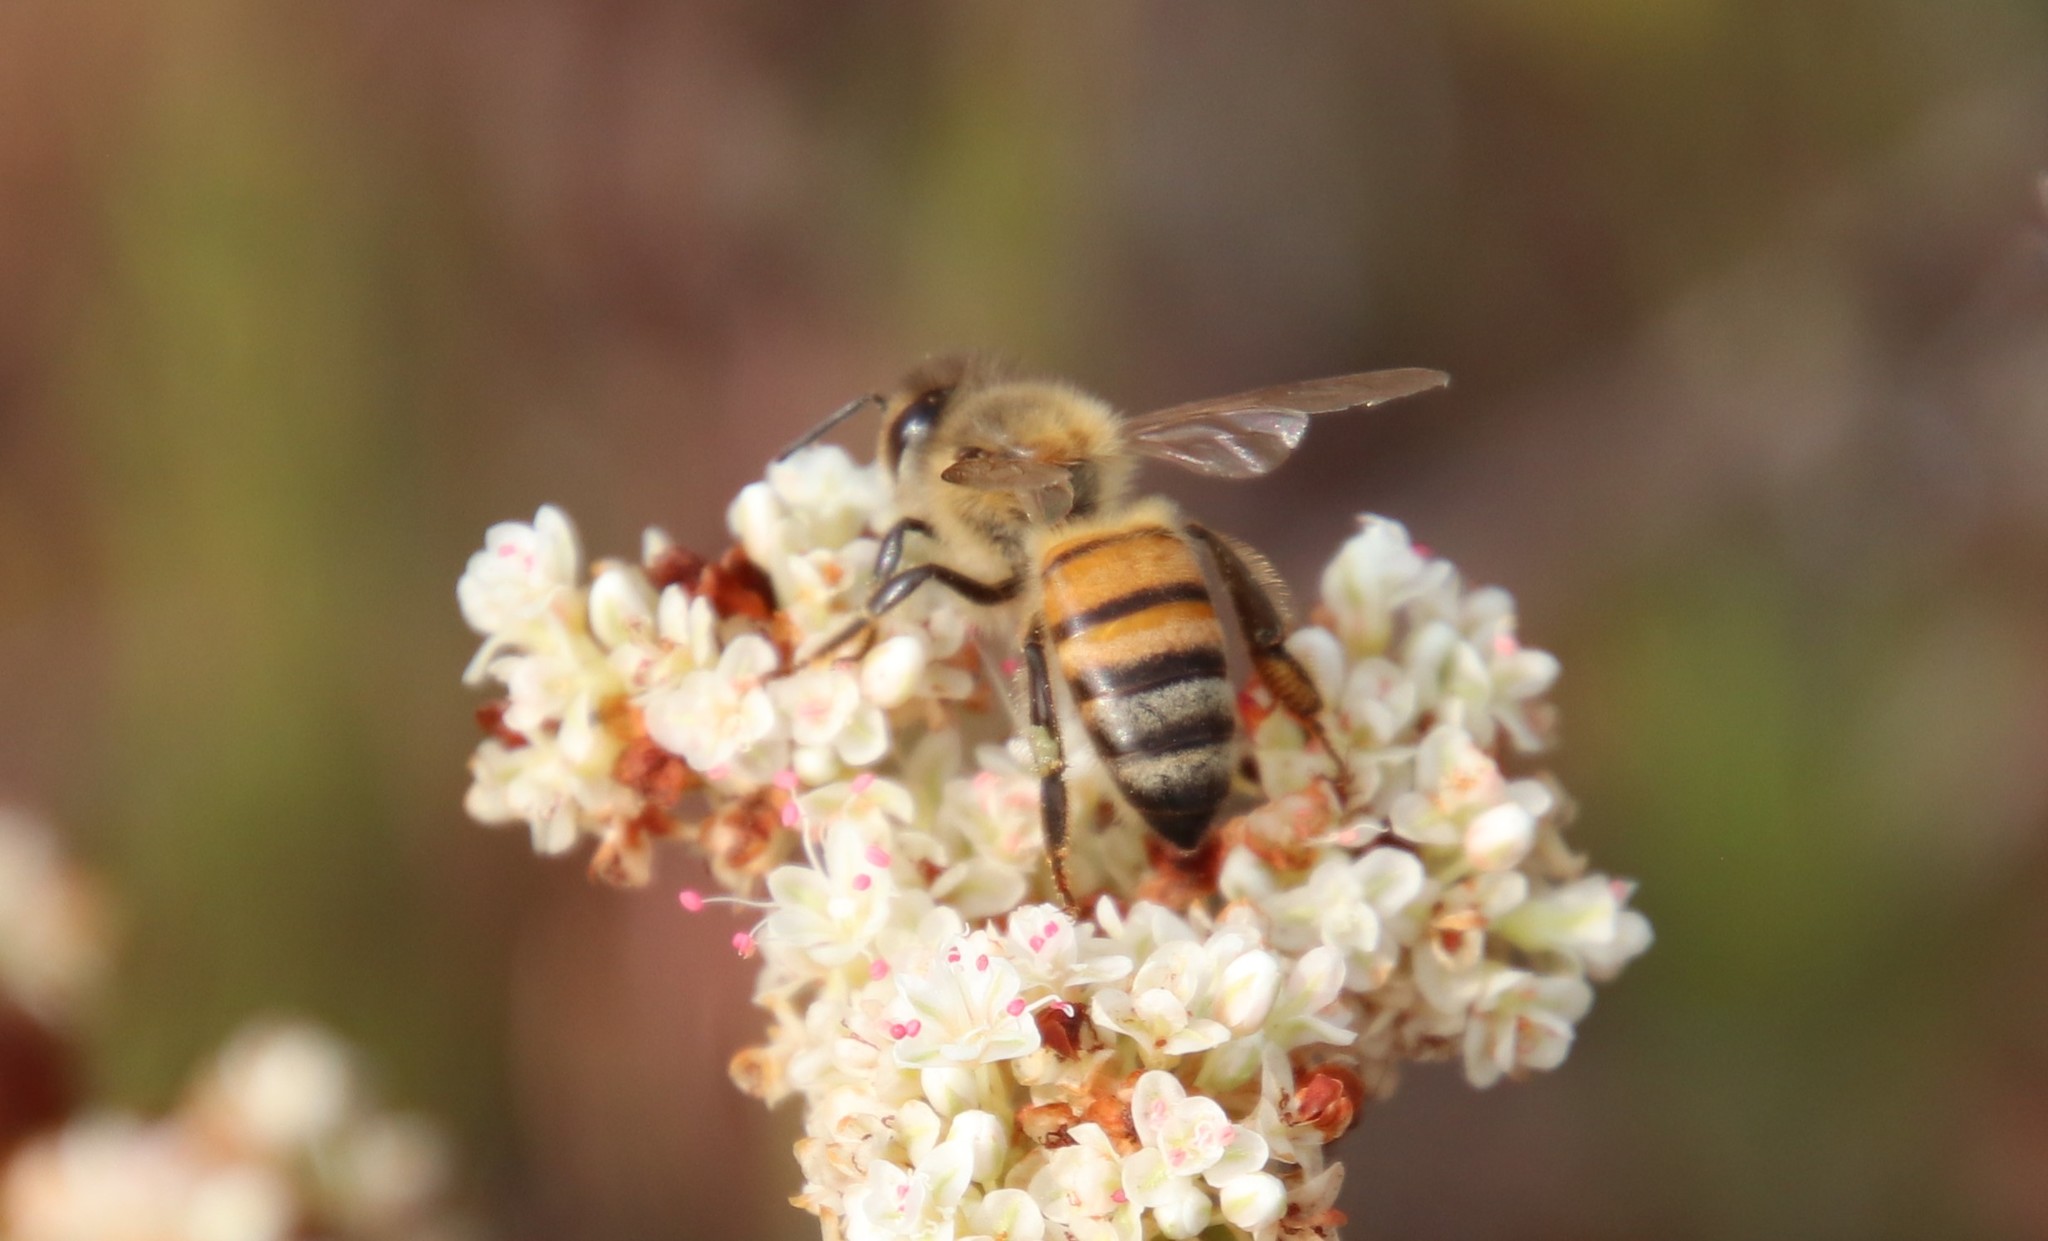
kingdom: Animalia
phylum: Arthropoda
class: Insecta
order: Hymenoptera
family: Apidae
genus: Apis
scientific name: Apis mellifera
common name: Honey bee
